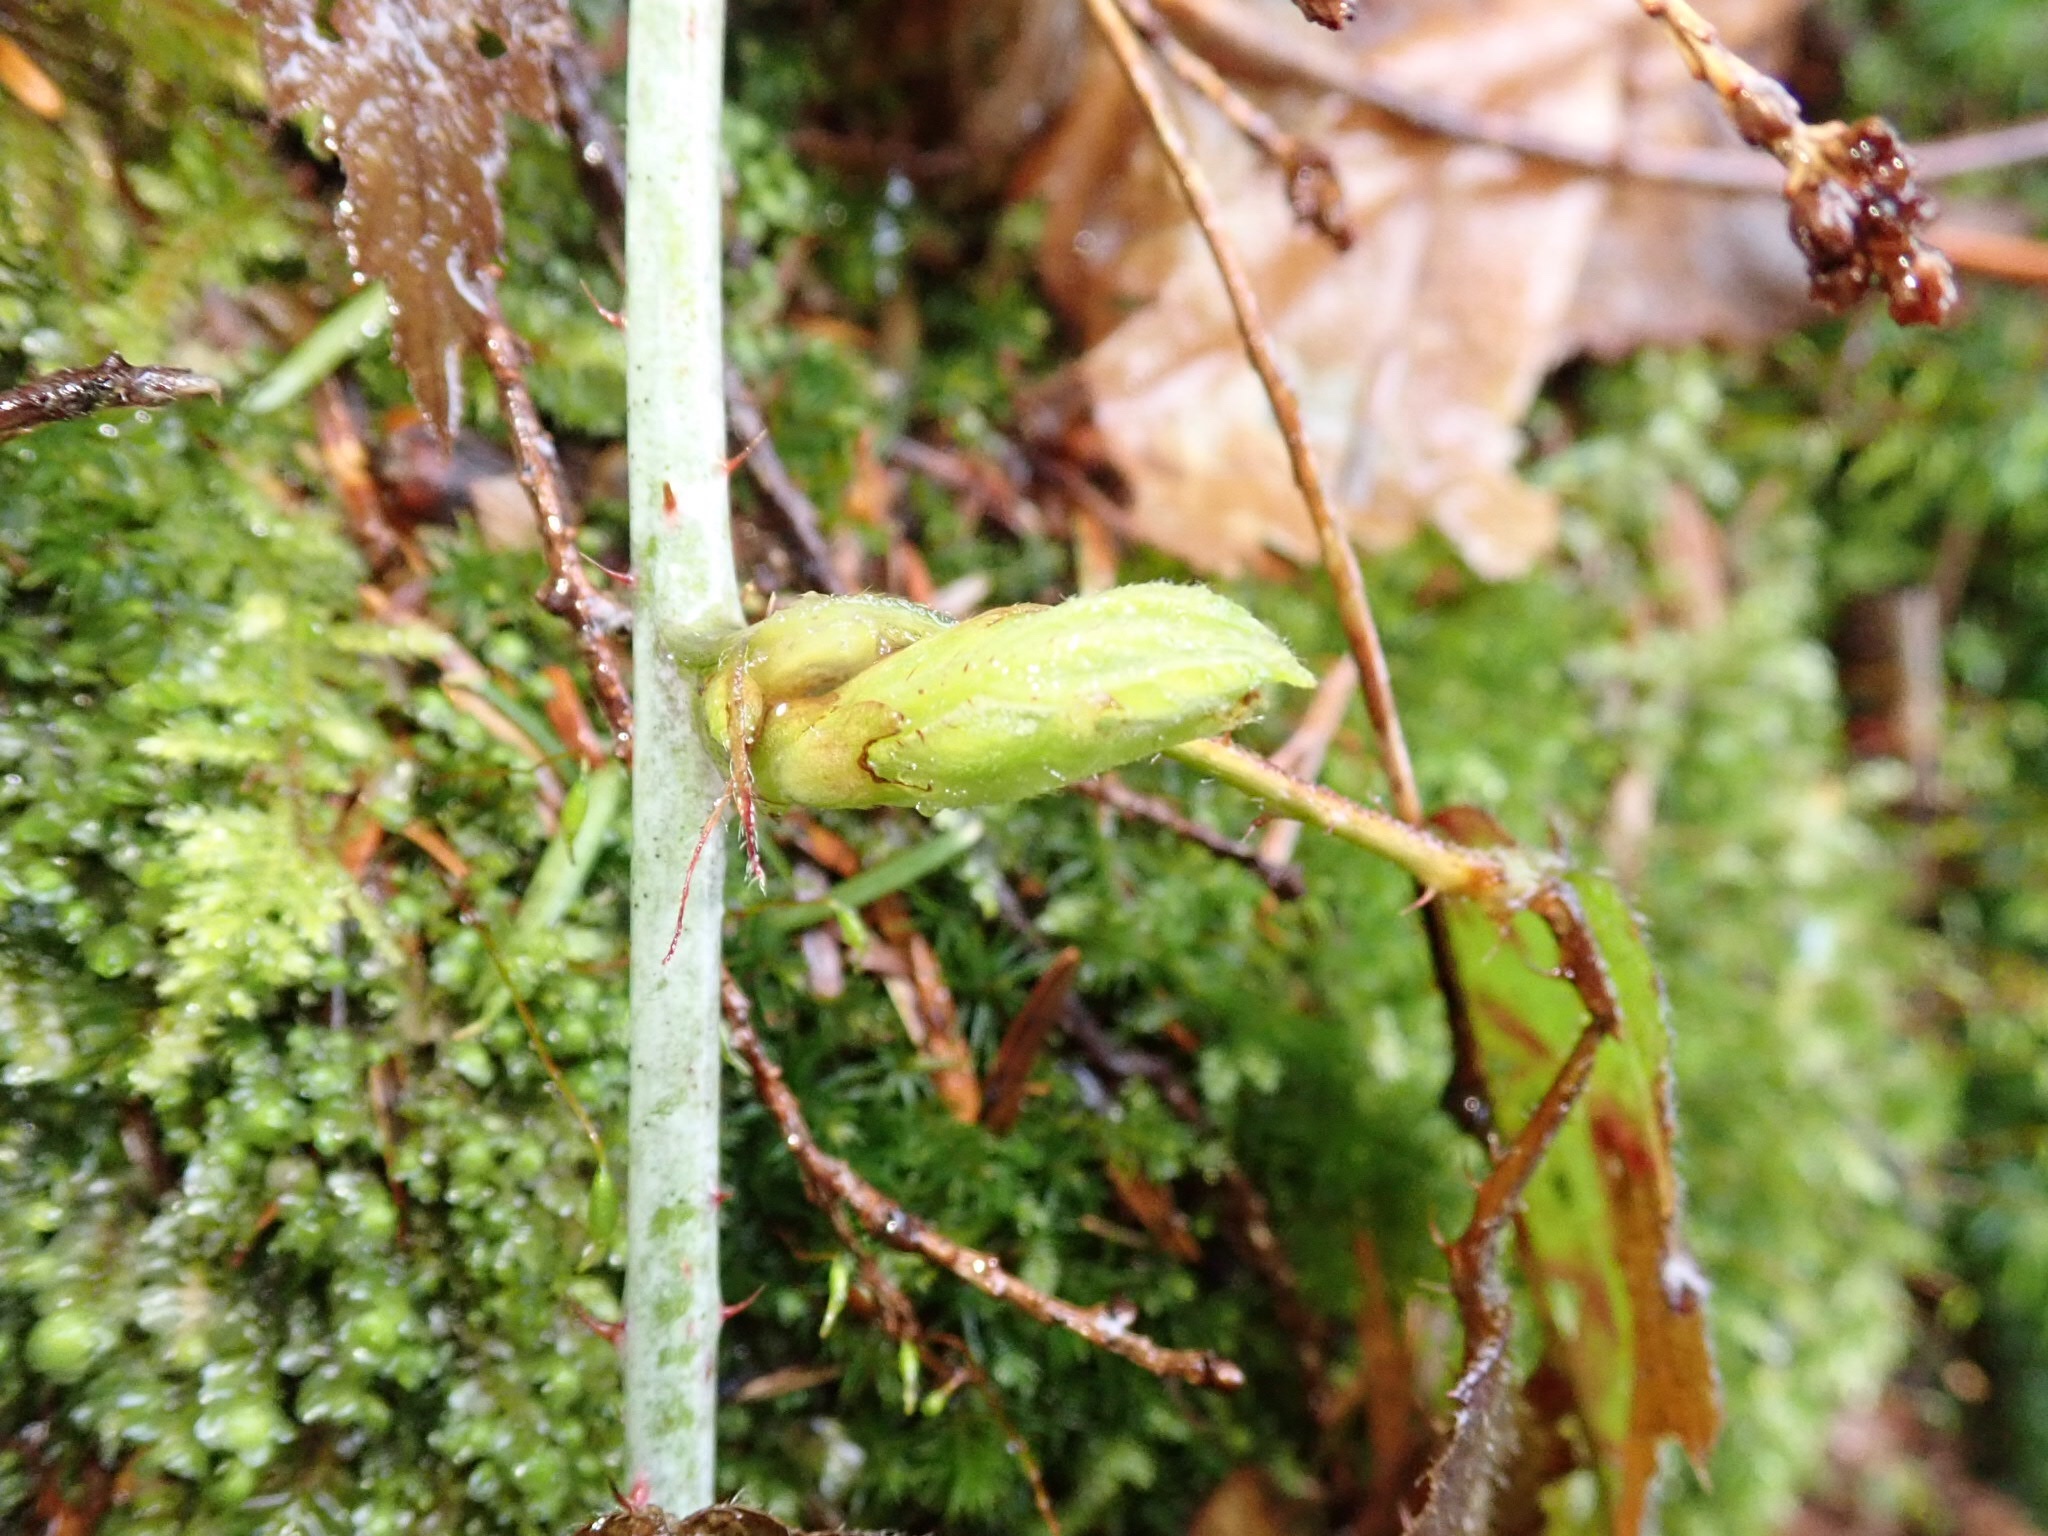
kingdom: Plantae
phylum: Tracheophyta
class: Magnoliopsida
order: Rosales
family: Rosaceae
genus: Rubus
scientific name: Rubus ursinus
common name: Pacific blackberry
